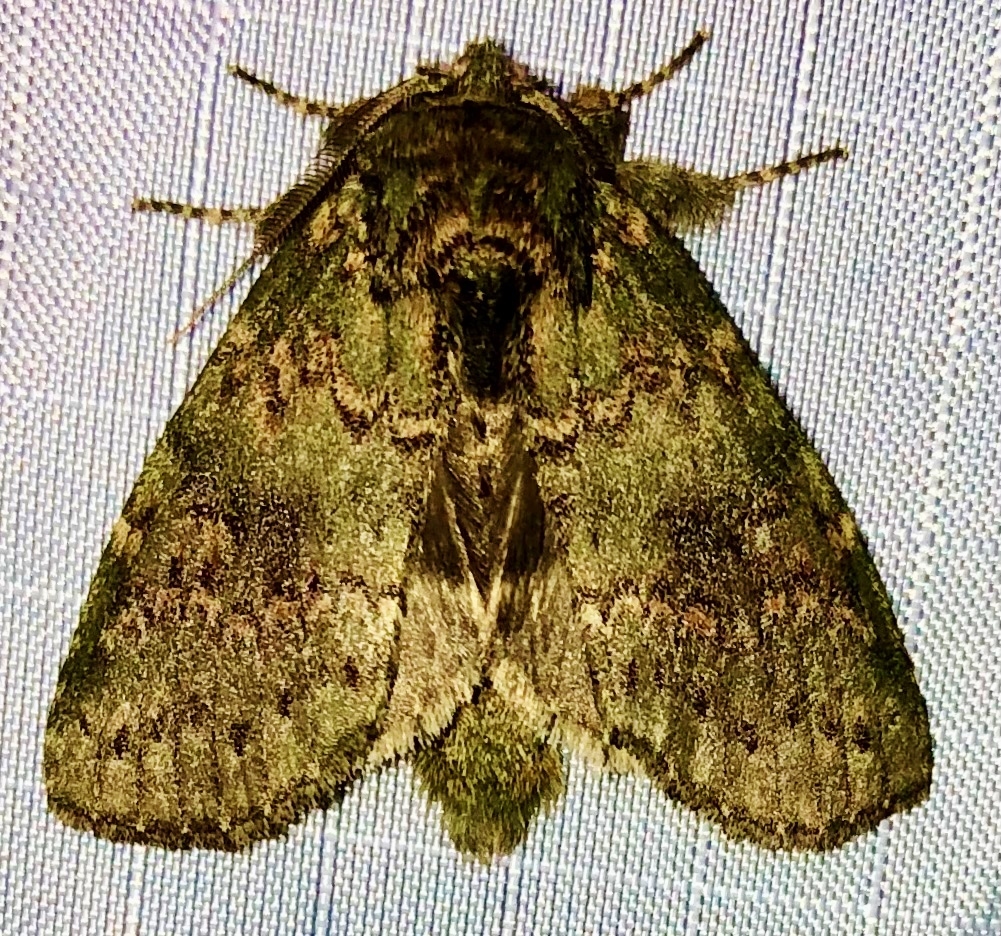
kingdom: Animalia
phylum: Arthropoda
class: Insecta
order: Lepidoptera
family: Notodontidae
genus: Disphragis
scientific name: Disphragis Cecrita biundata
